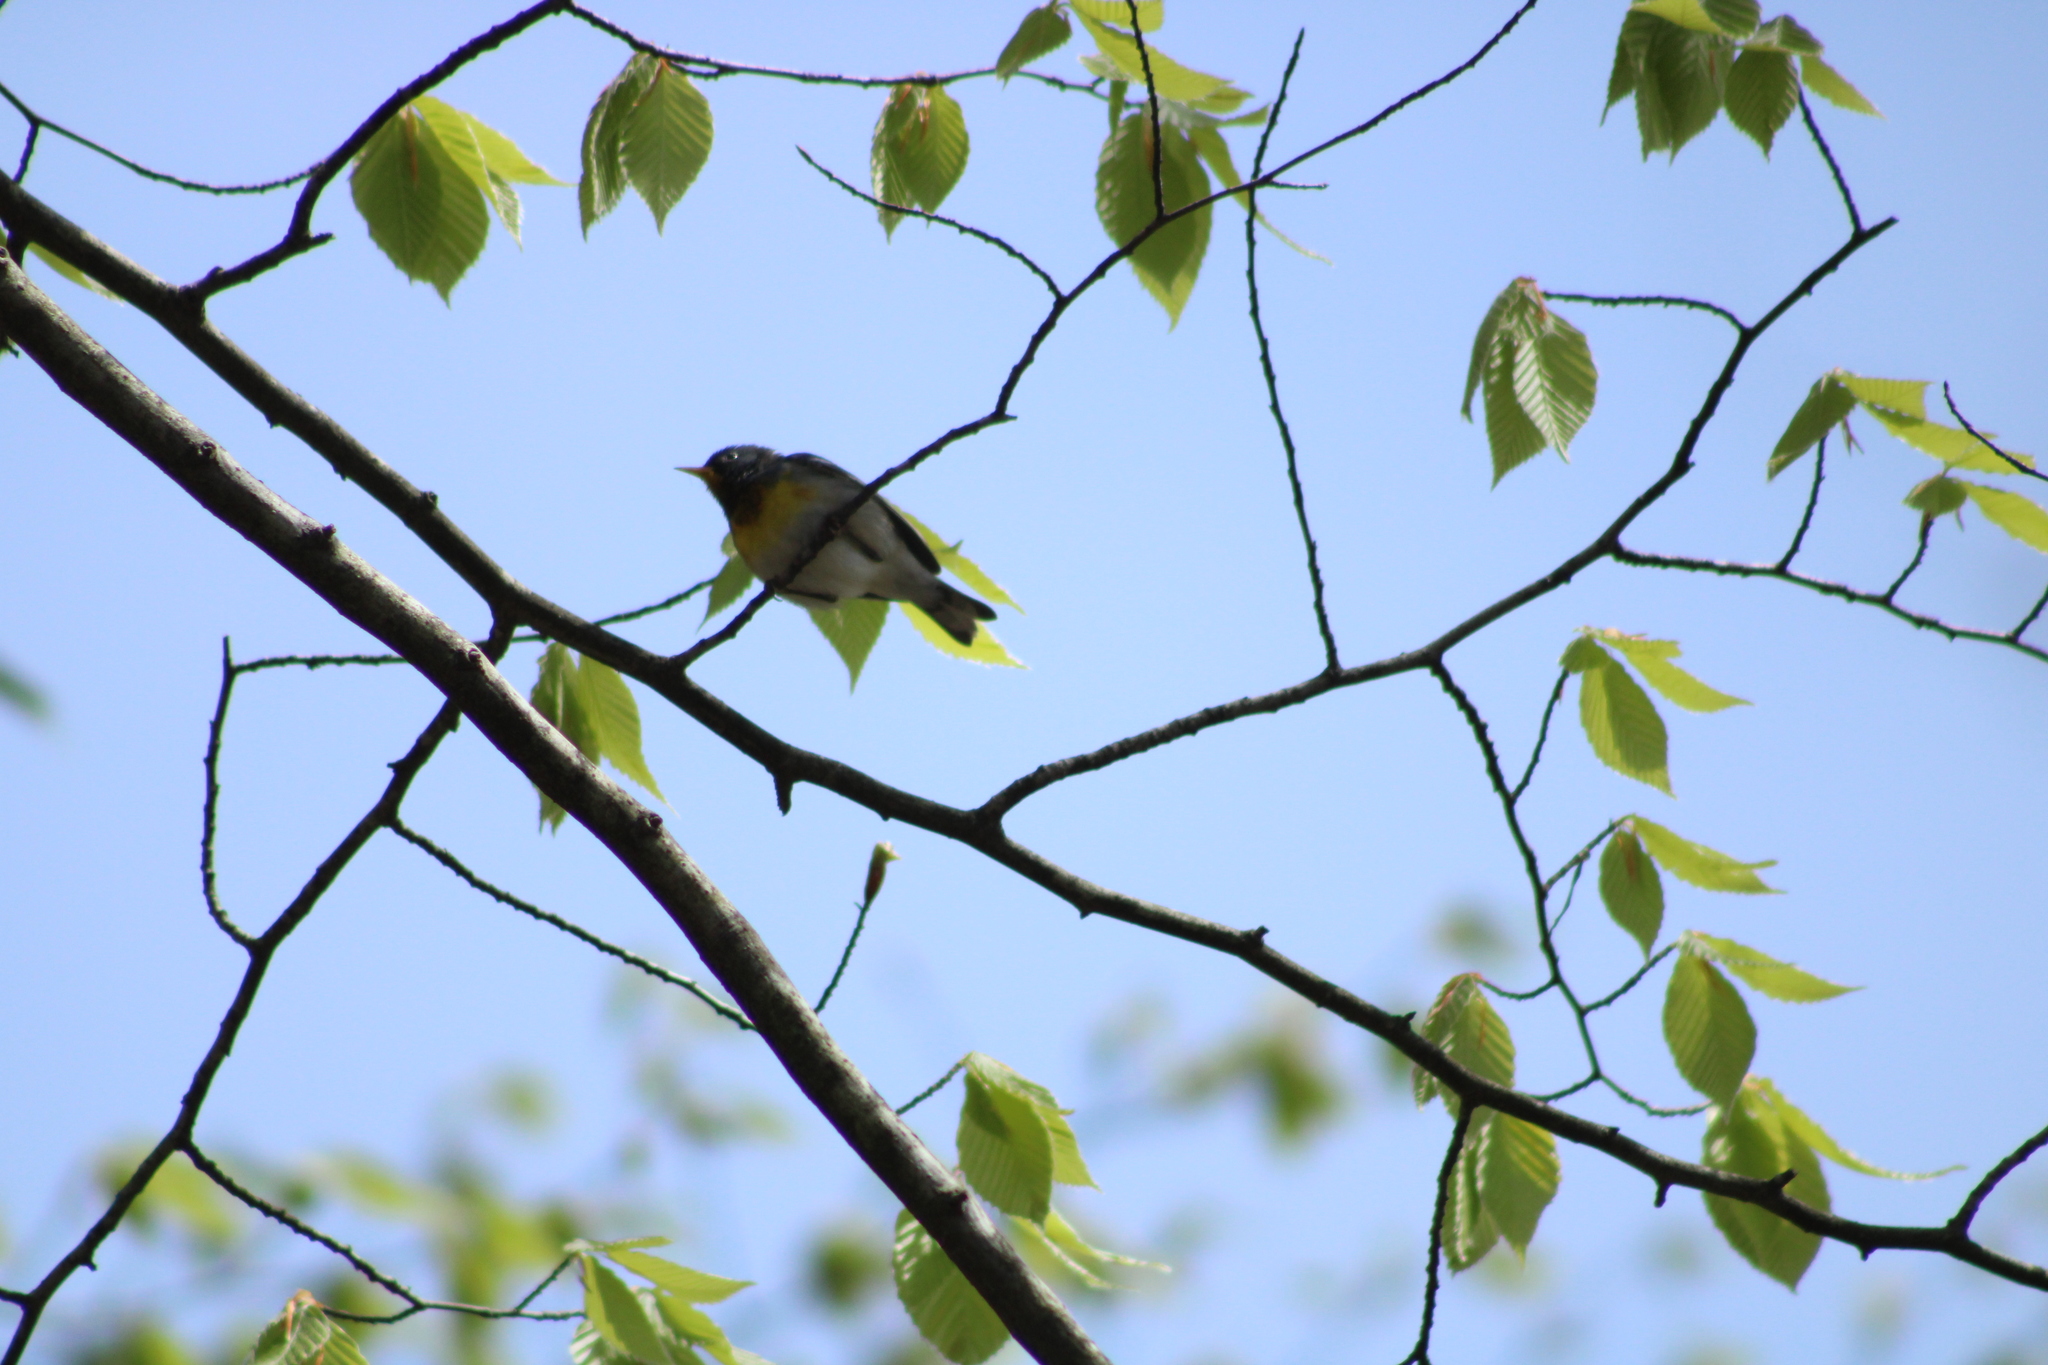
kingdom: Animalia
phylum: Chordata
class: Aves
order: Passeriformes
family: Parulidae
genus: Setophaga
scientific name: Setophaga americana
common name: Northern parula
